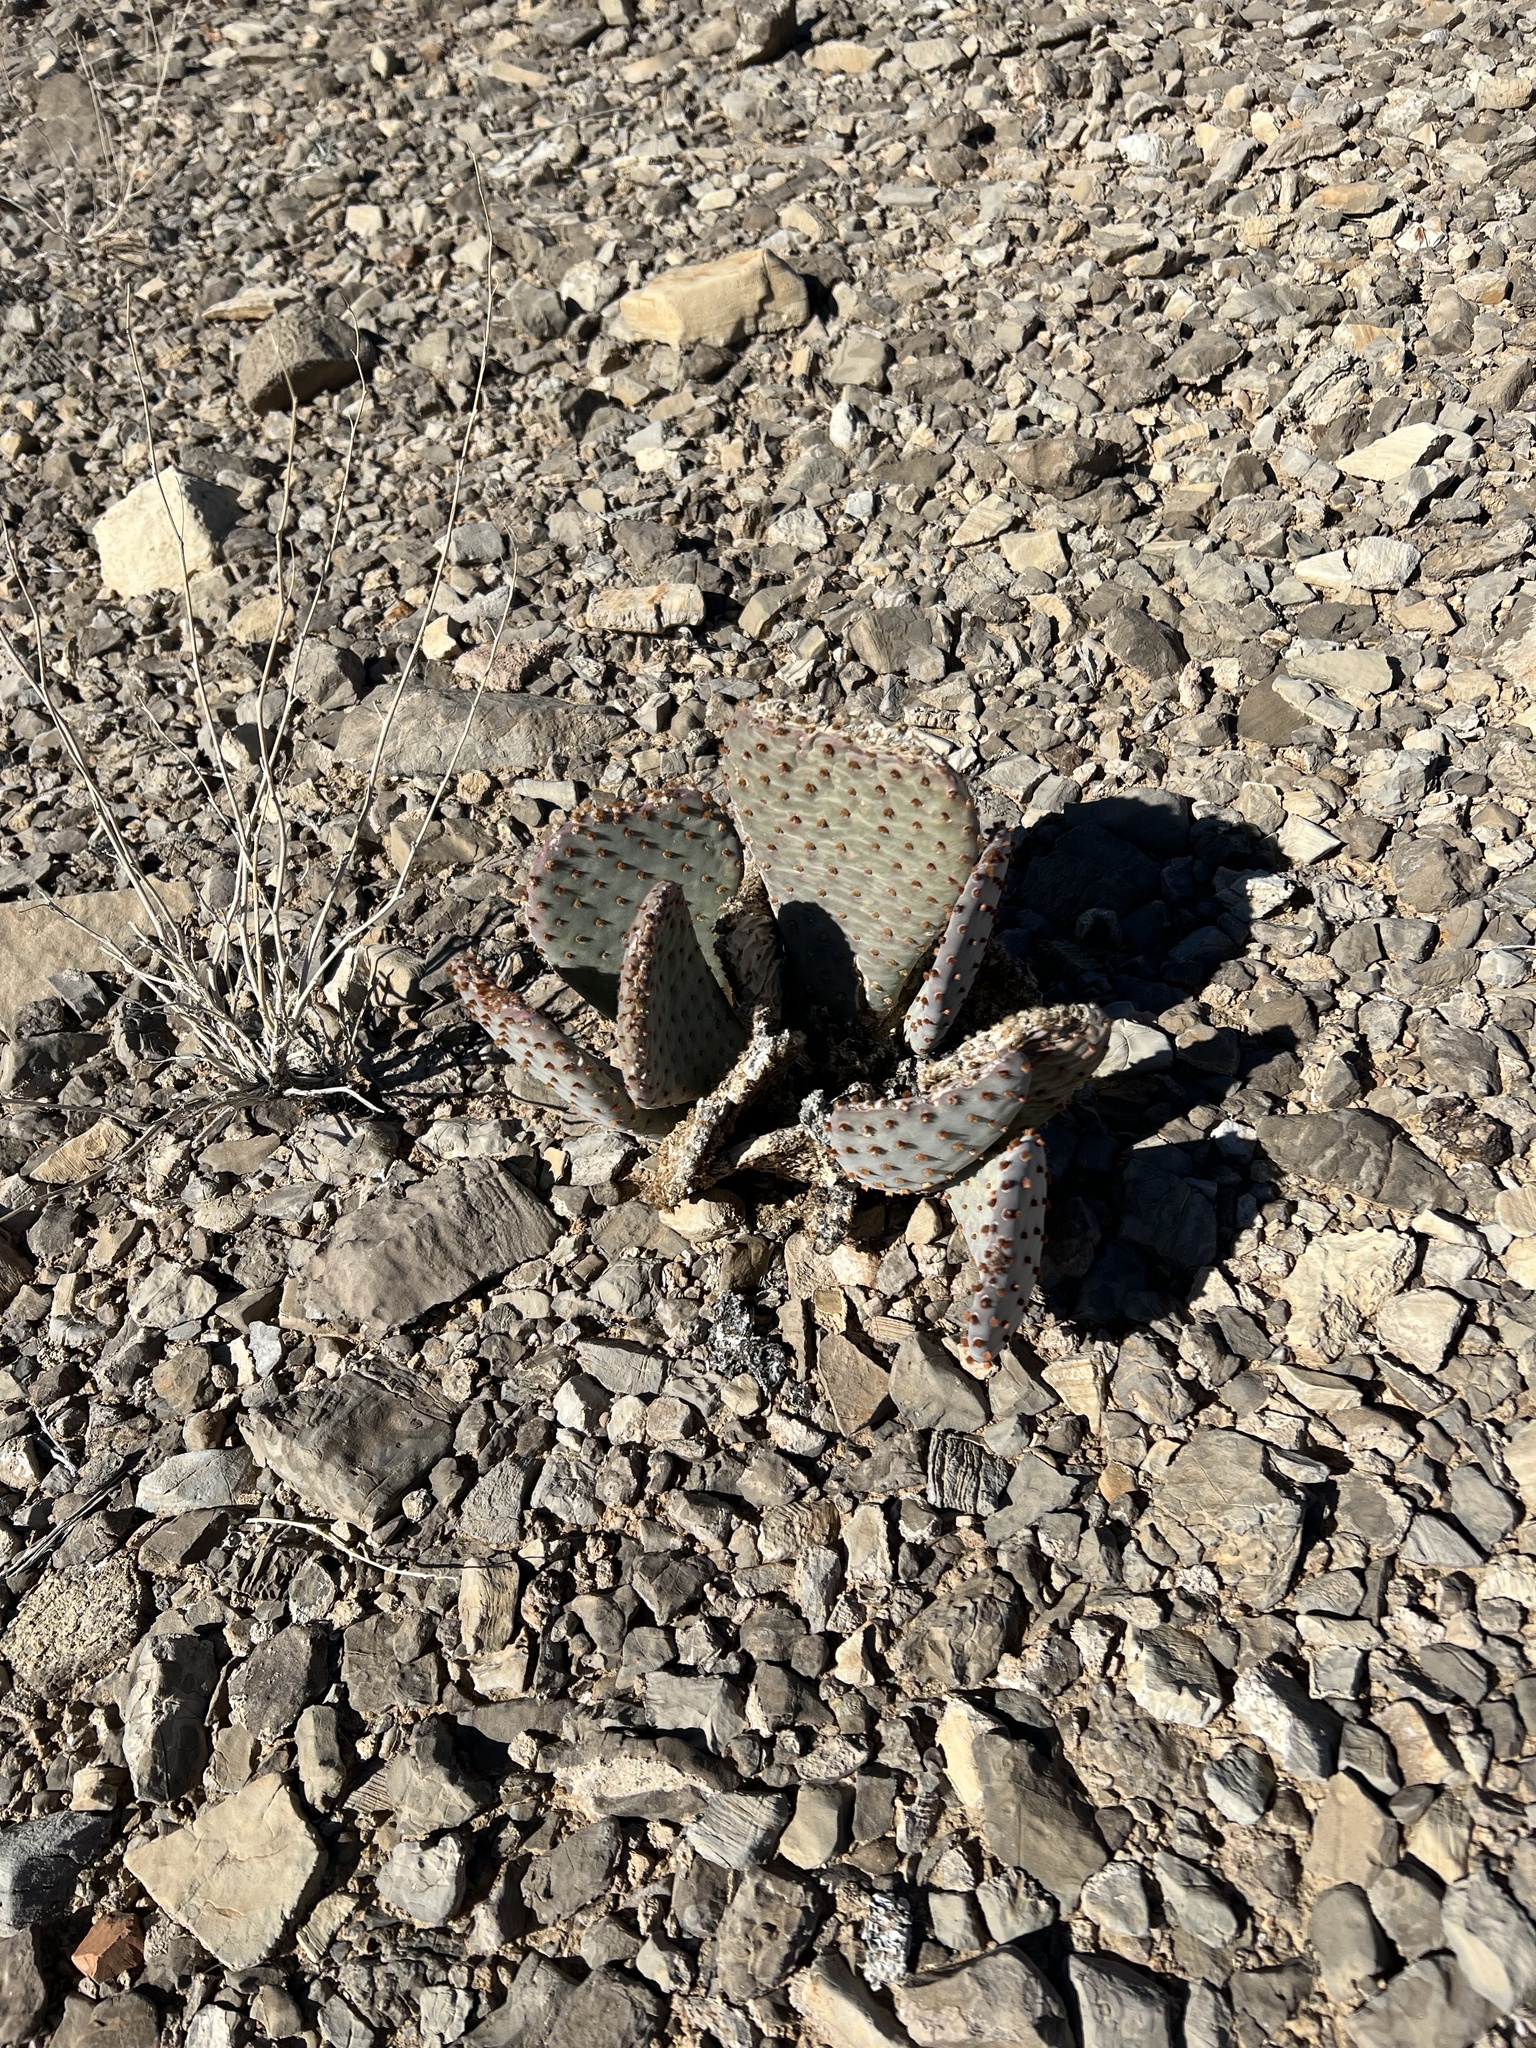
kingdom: Plantae
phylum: Tracheophyta
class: Magnoliopsida
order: Caryophyllales
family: Cactaceae
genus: Opuntia
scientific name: Opuntia basilaris
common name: Beavertail prickly-pear
